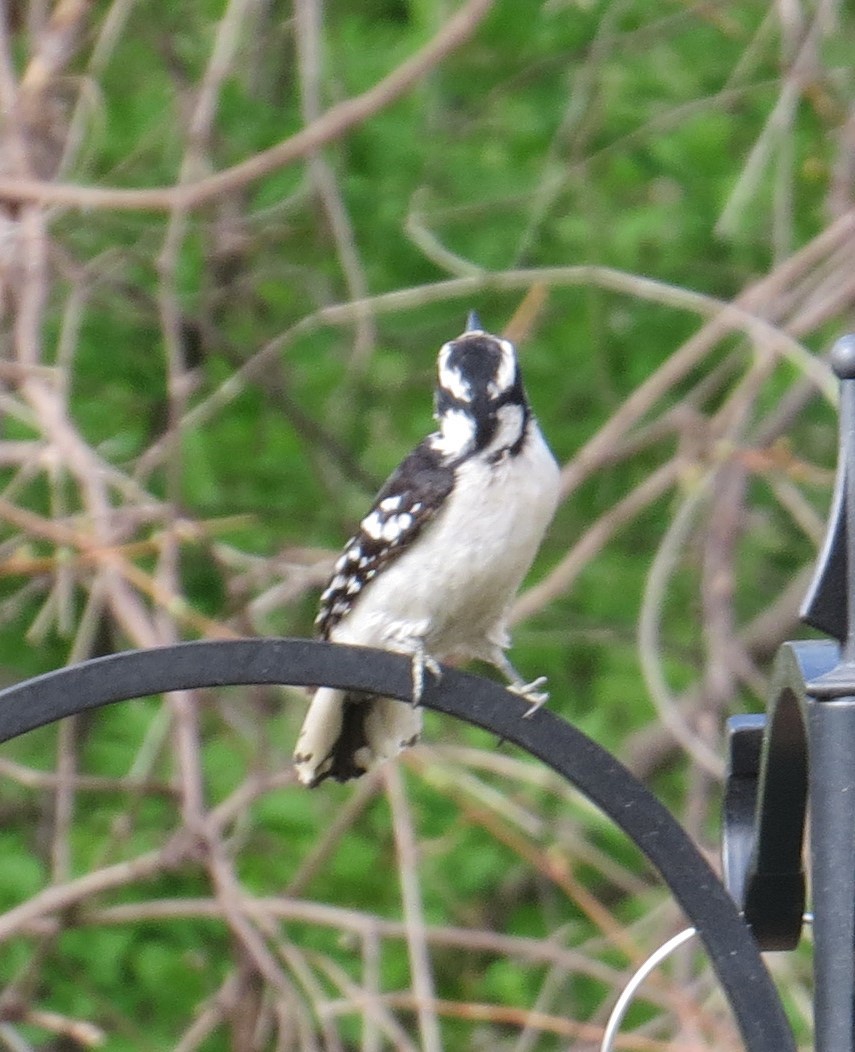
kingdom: Animalia
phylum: Chordata
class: Aves
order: Piciformes
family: Picidae
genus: Dryobates
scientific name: Dryobates pubescens
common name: Downy woodpecker
